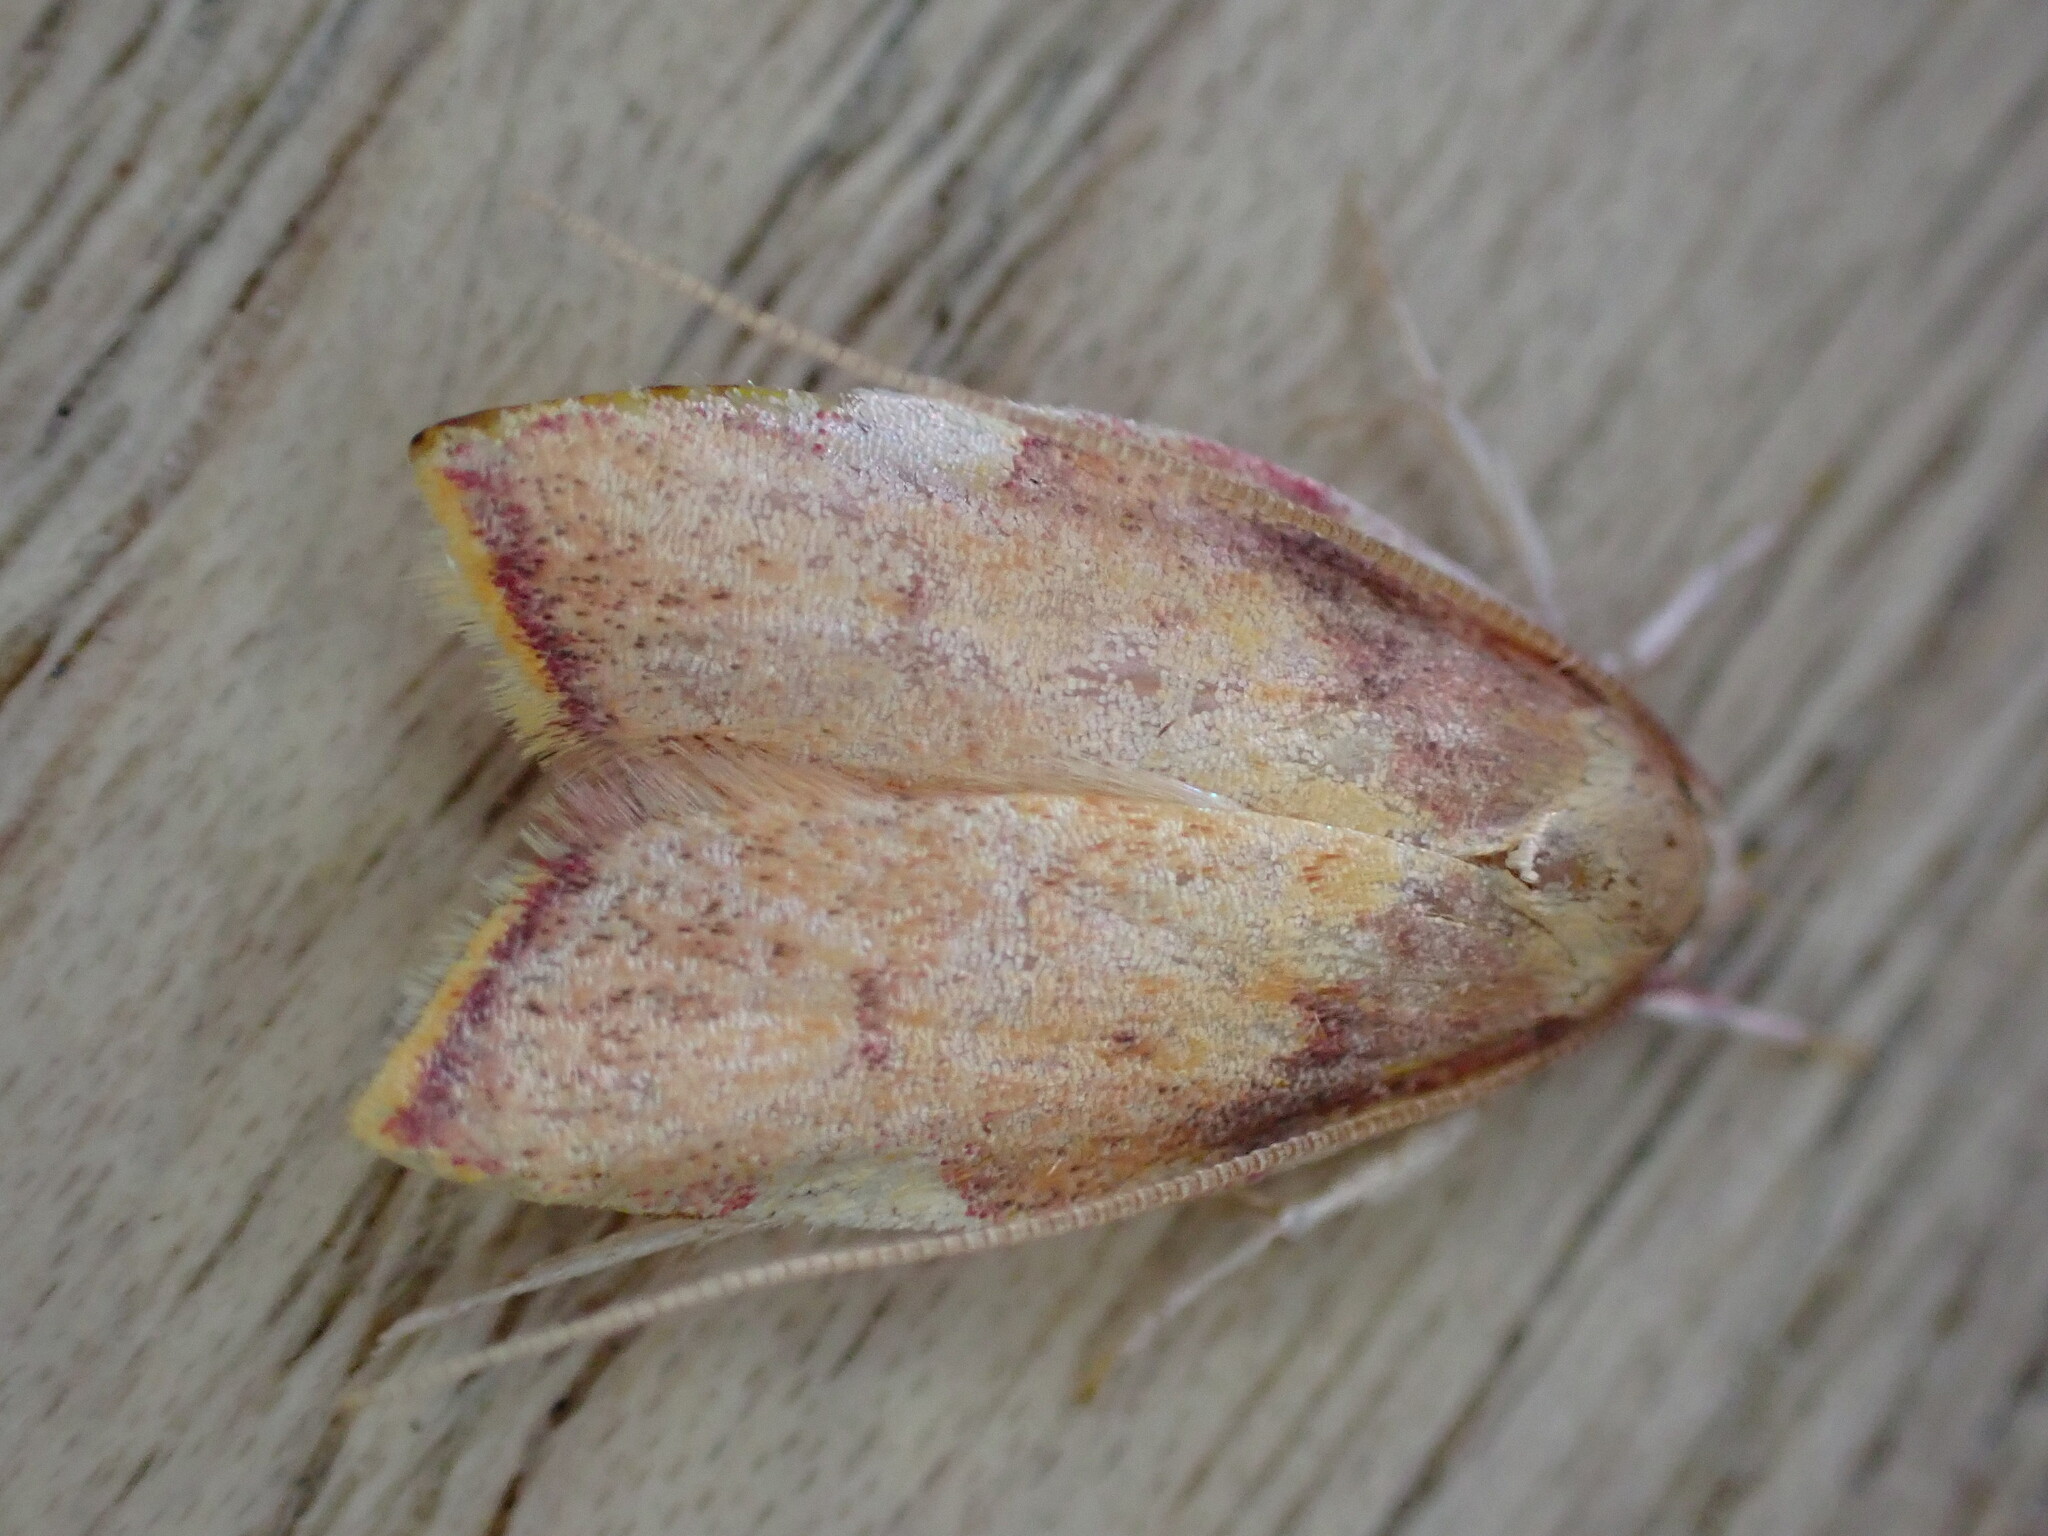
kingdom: Animalia
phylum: Arthropoda
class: Insecta
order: Lepidoptera
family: Peleopodidae
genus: Carcina
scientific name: Carcina quercana
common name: Moth
